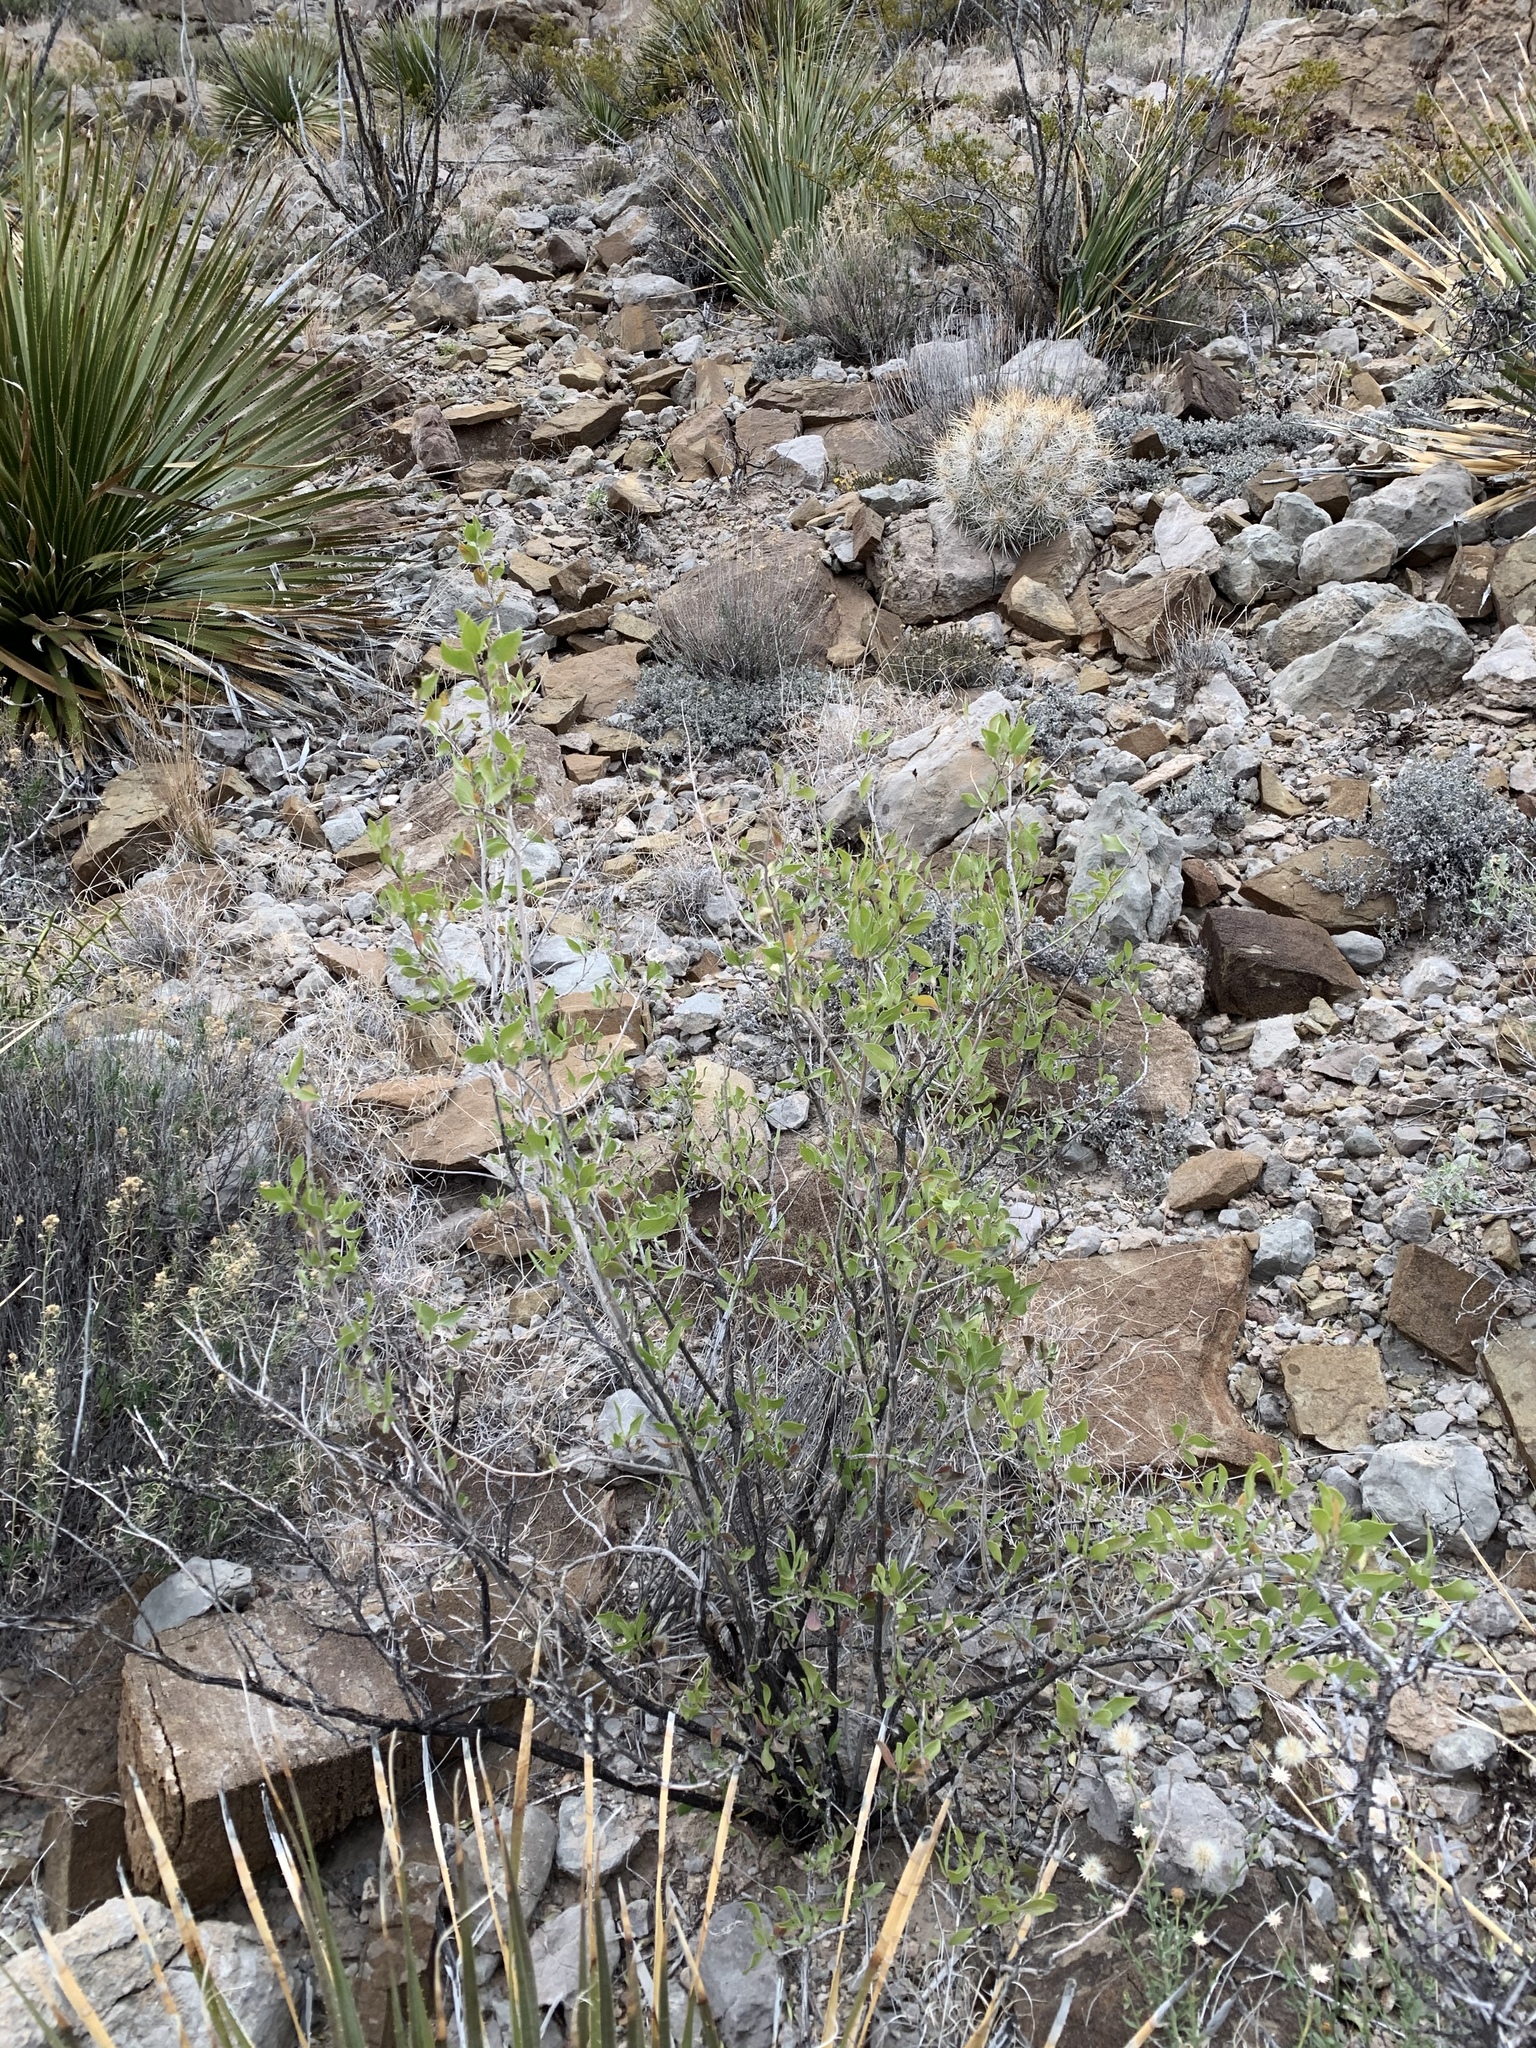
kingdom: Plantae
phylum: Tracheophyta
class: Magnoliopsida
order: Asterales
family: Asteraceae
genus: Flourensia
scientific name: Flourensia cernua
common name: Varnishbush
